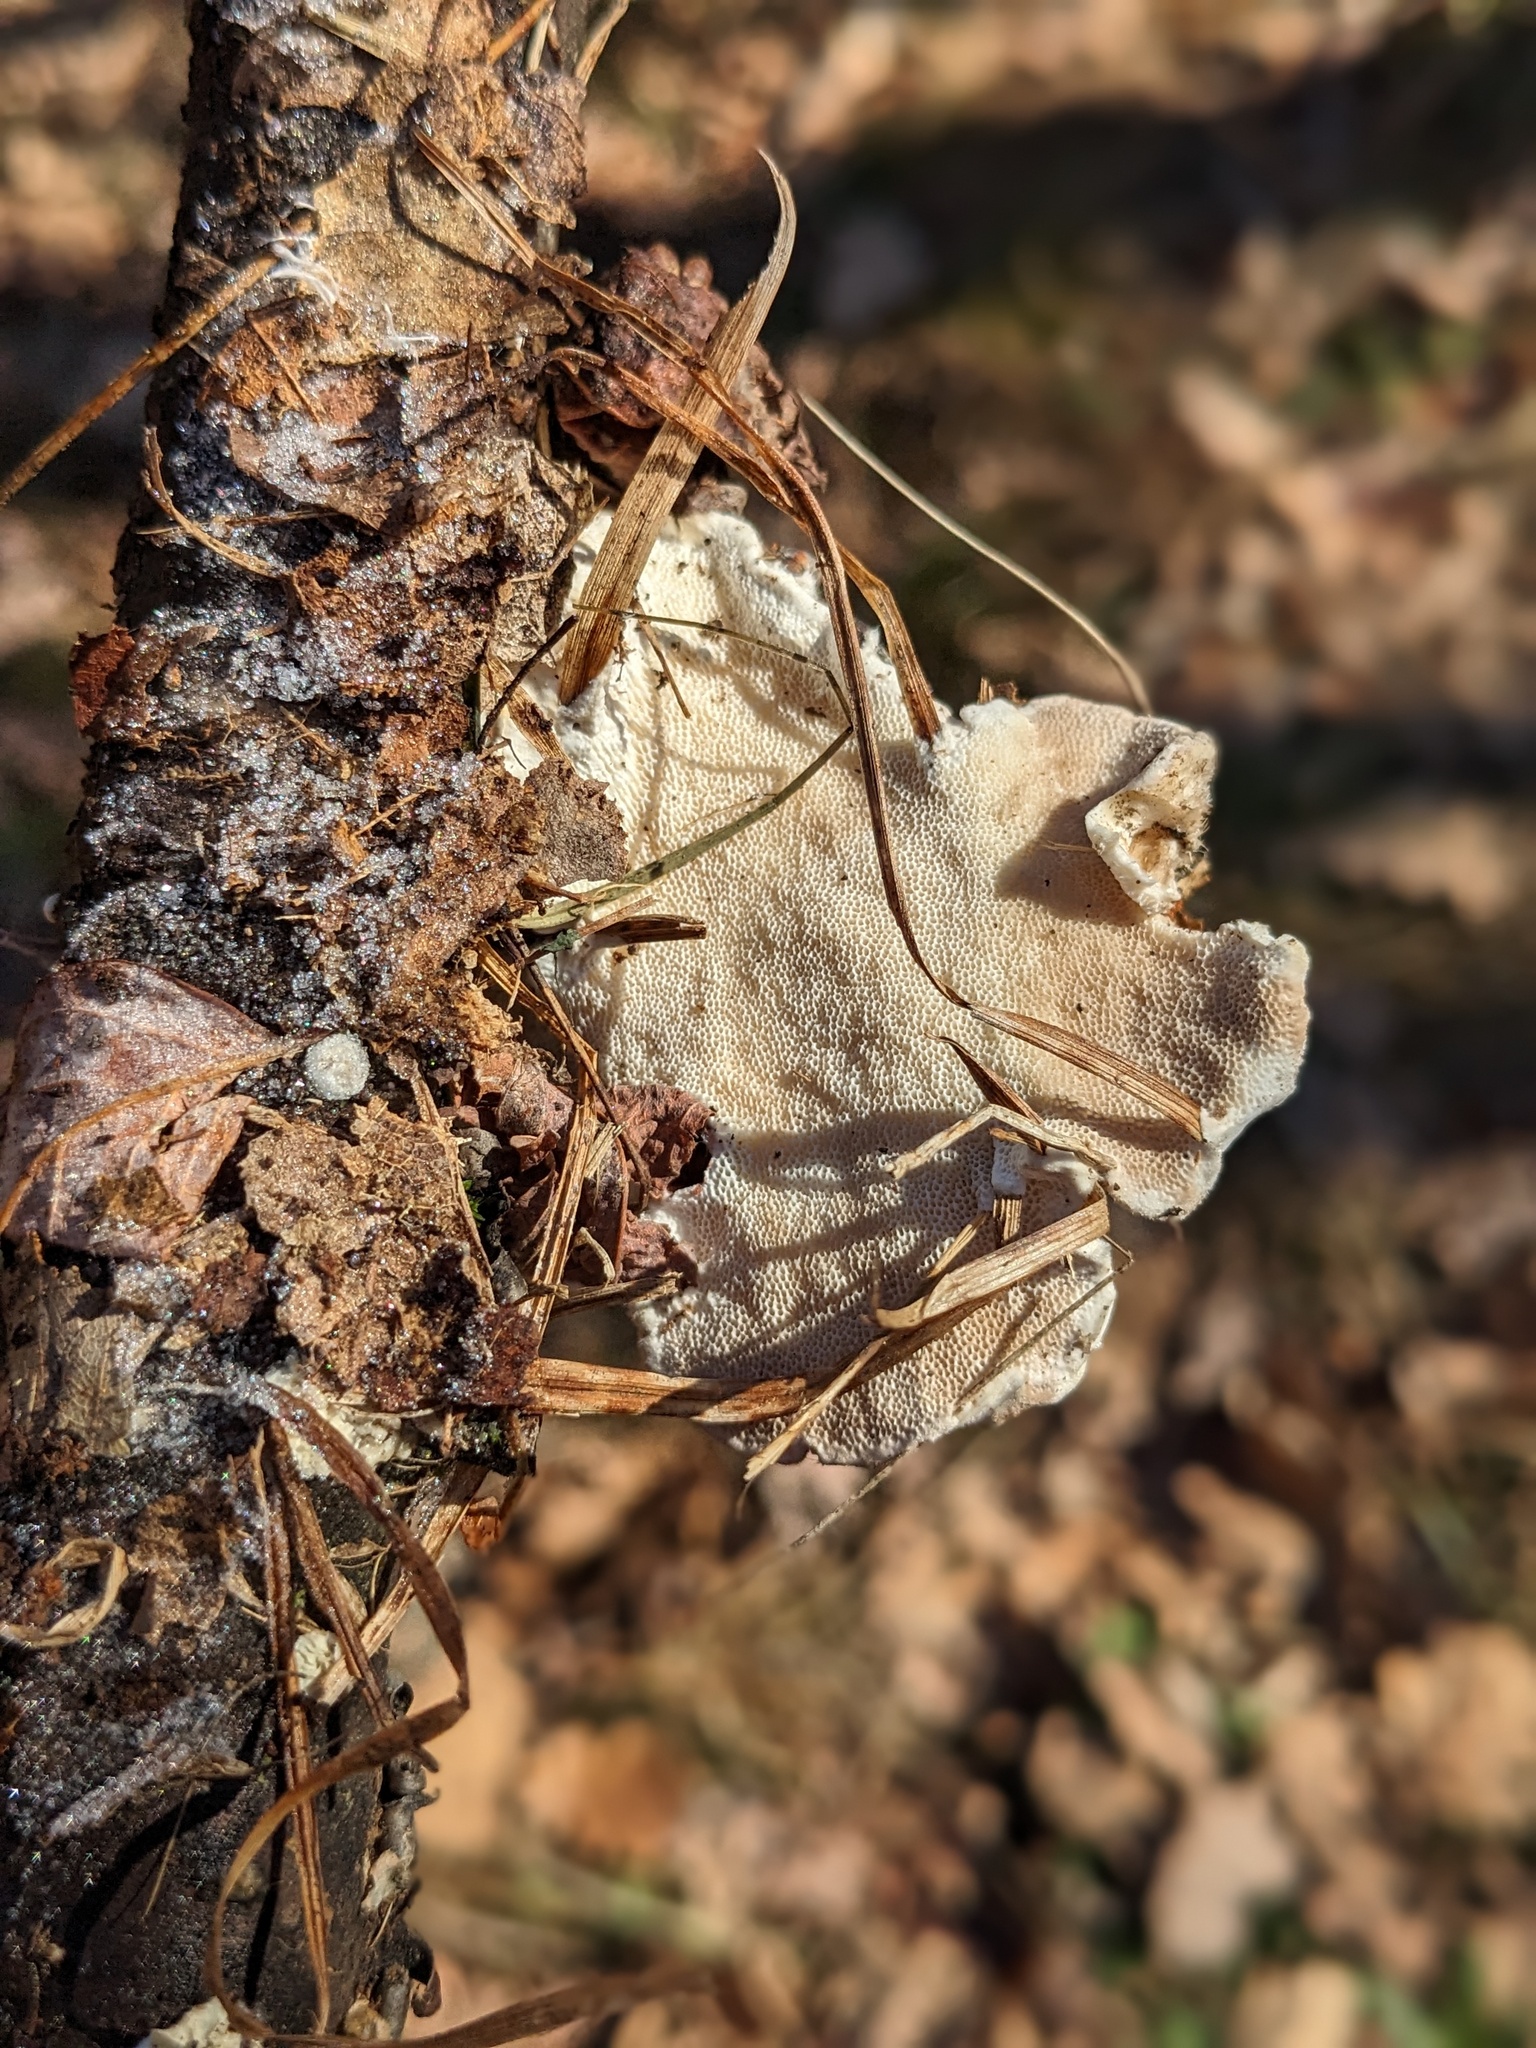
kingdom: Fungi
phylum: Basidiomycota
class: Agaricomycetes
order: Polyporales
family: Polyporaceae
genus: Trametes
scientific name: Trametes hirsuta
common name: Hairy bracket
